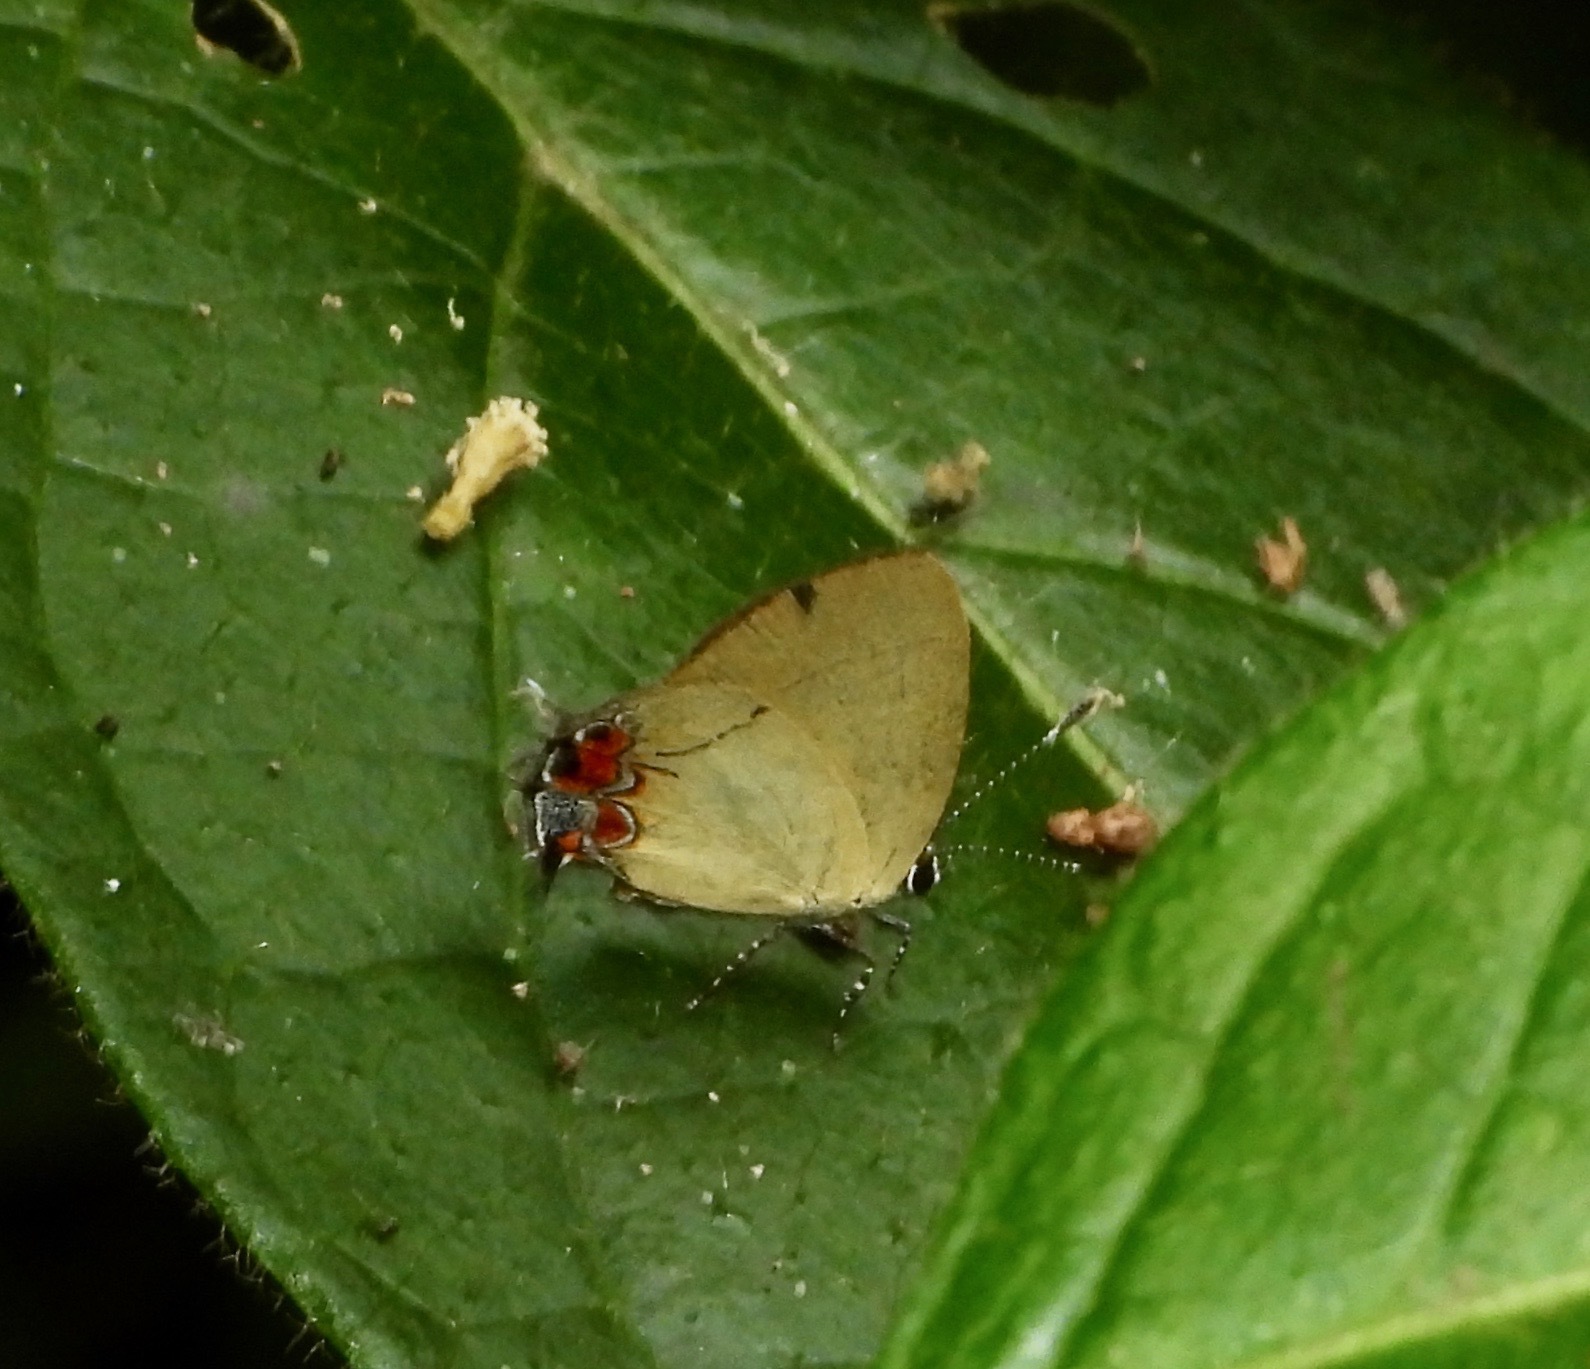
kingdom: Animalia
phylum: Arthropoda
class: Insecta
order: Lepidoptera
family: Lycaenidae
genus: Calycopis
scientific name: Calycopis trebula
